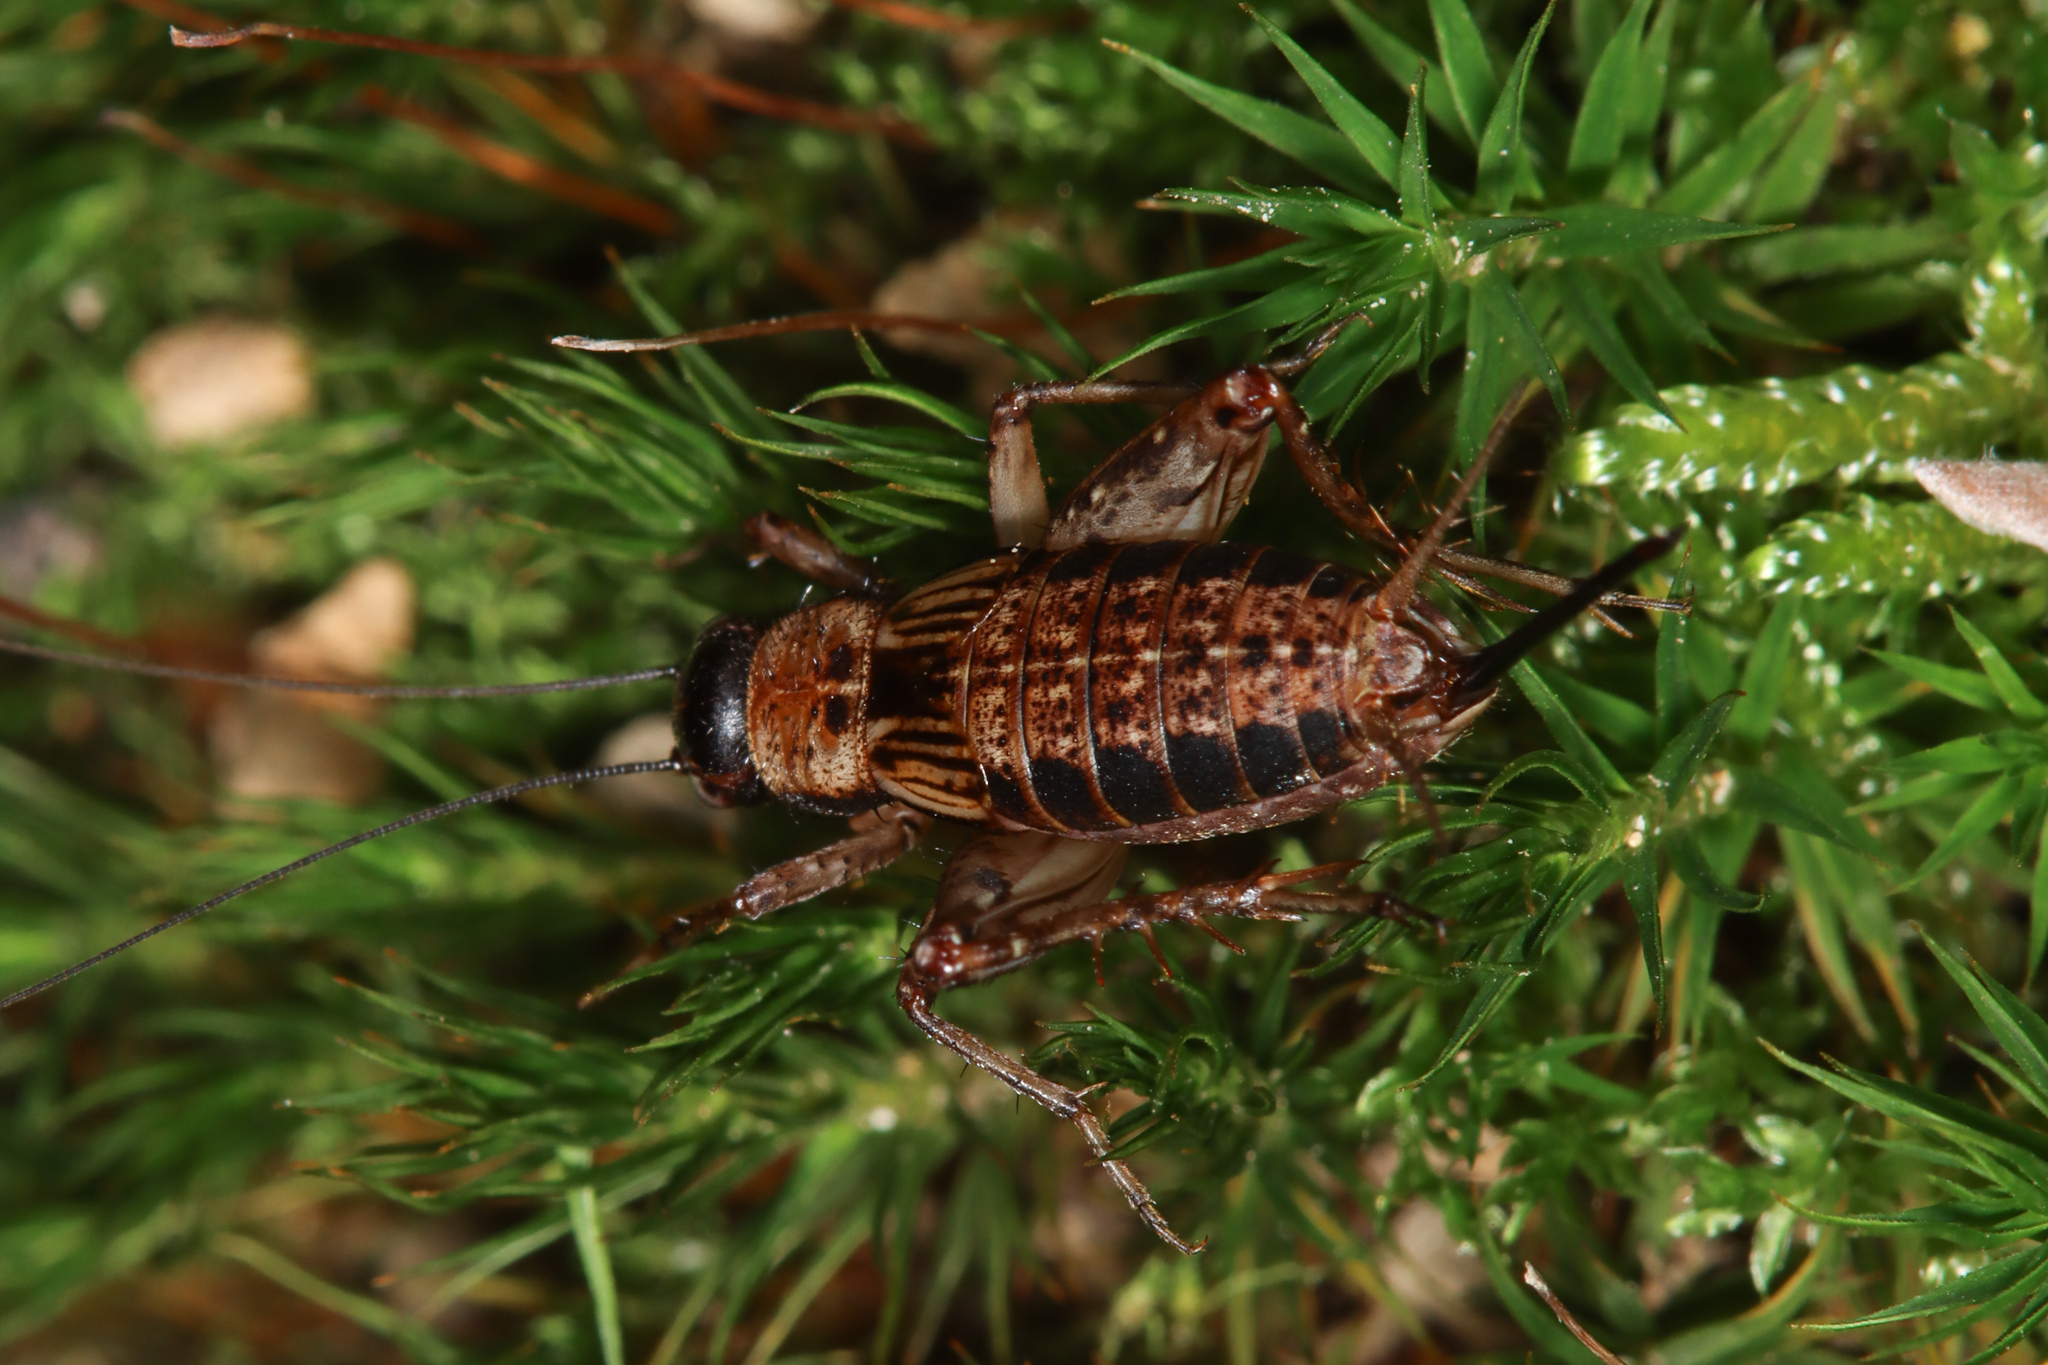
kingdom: Animalia
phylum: Arthropoda
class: Insecta
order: Orthoptera
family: Trigonidiidae
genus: Nemobius
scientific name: Nemobius sylvestris
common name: Wood-cricket
